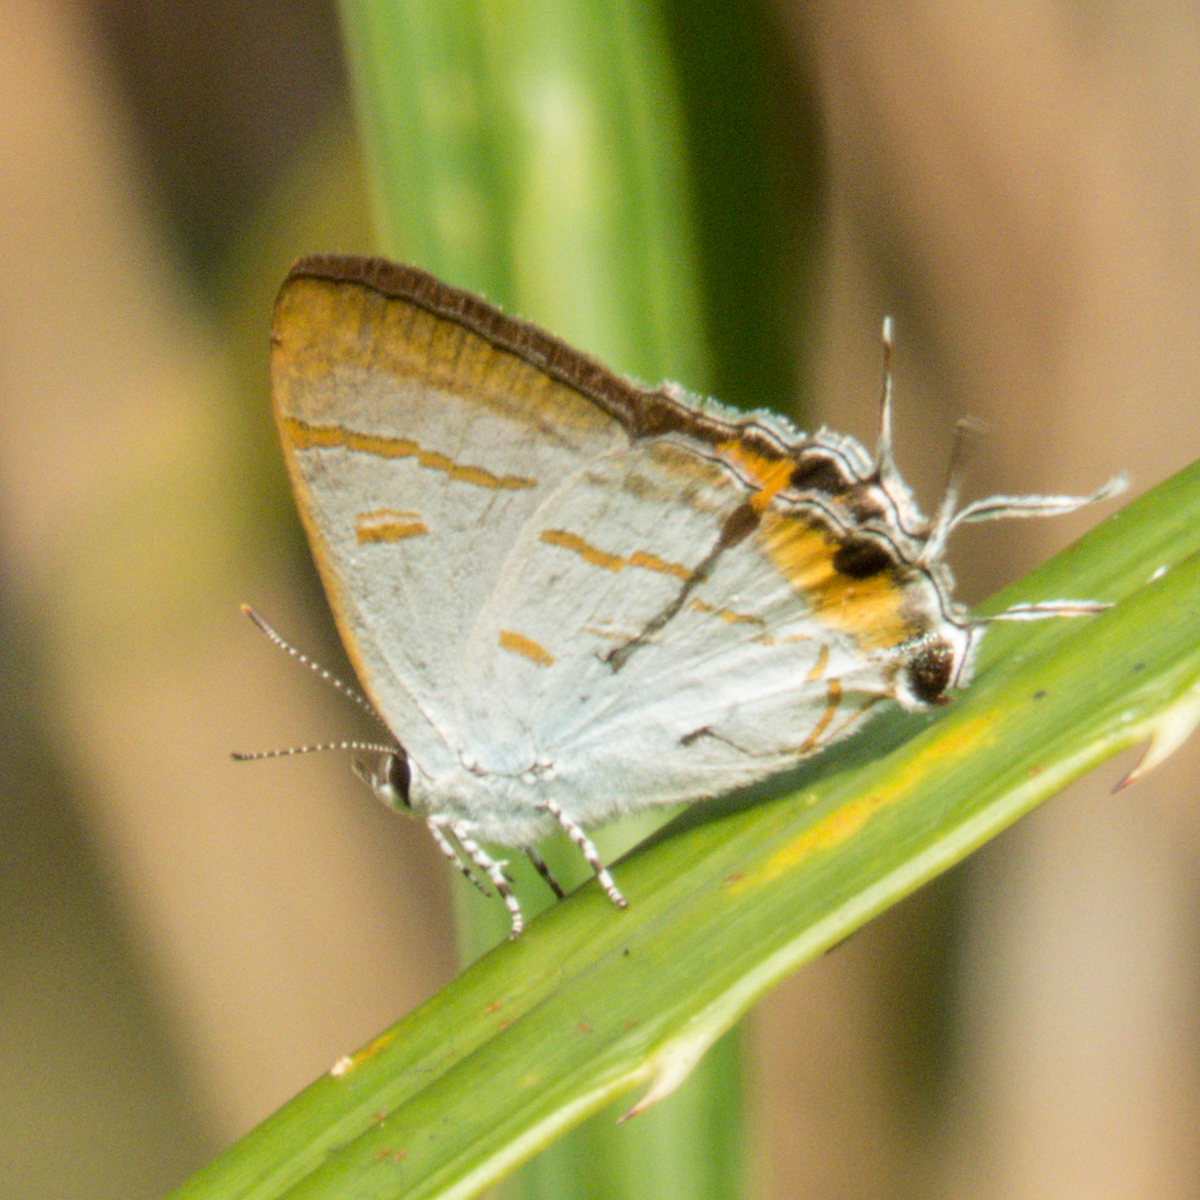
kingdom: Animalia
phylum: Arthropoda
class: Insecta
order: Lepidoptera
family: Lycaenidae
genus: Hypolycaena
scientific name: Hypolycaena thecloides
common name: Dark tit
